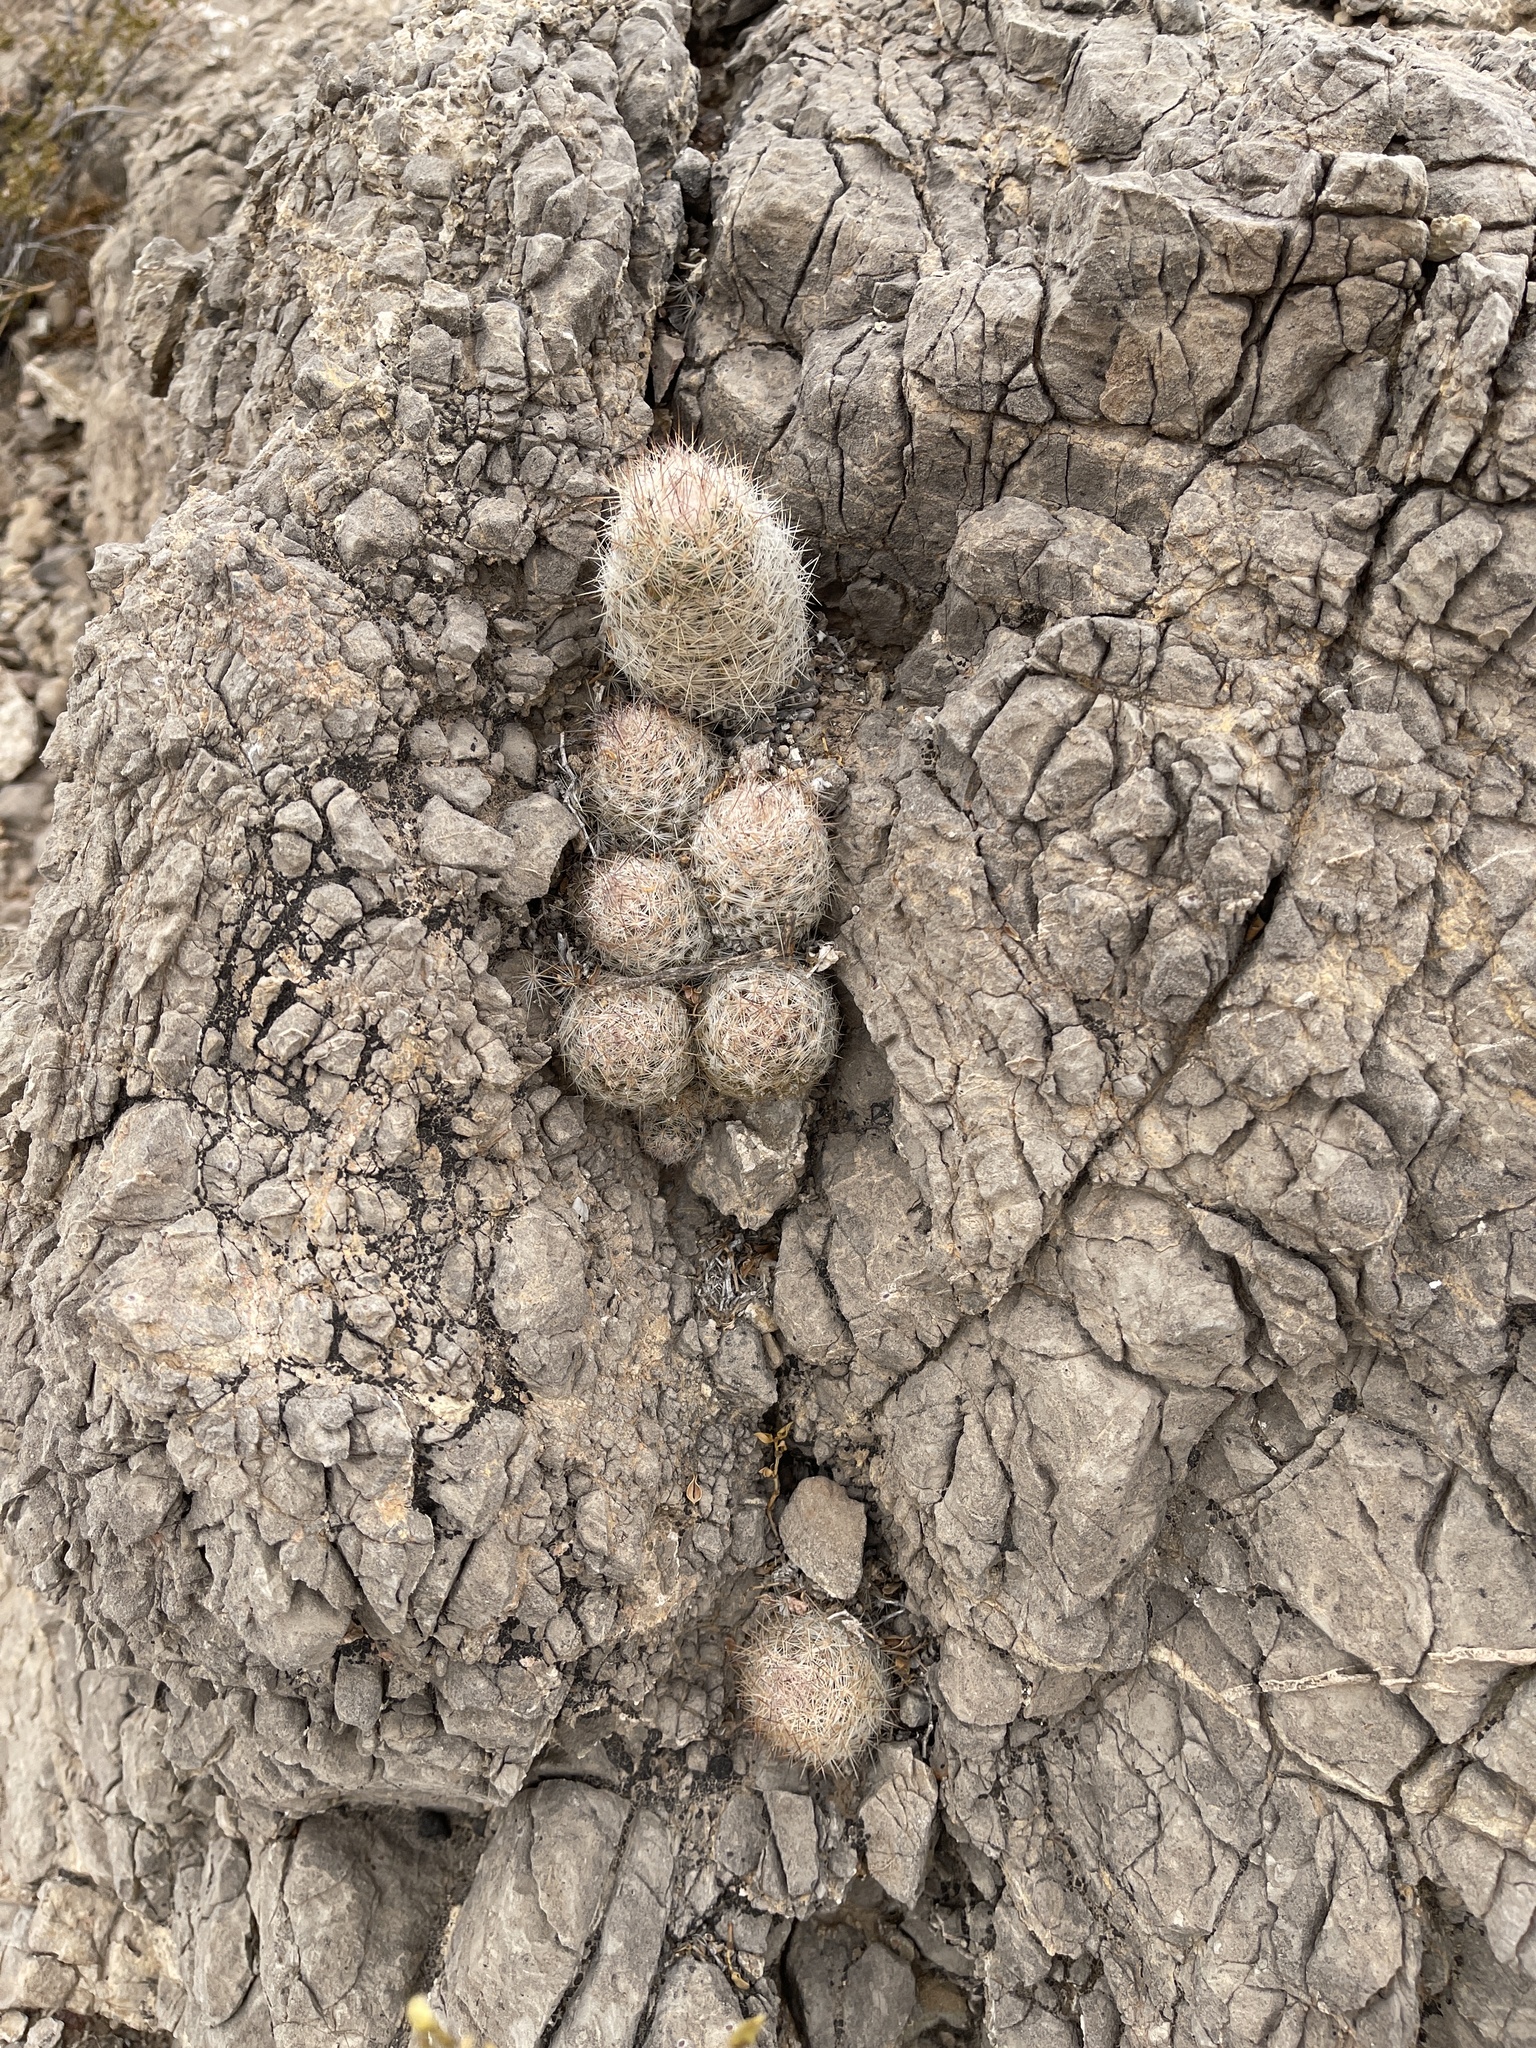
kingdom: Plantae
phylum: Tracheophyta
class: Magnoliopsida
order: Caryophyllales
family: Cactaceae
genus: Pelecyphora
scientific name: Pelecyphora tuberculosa
